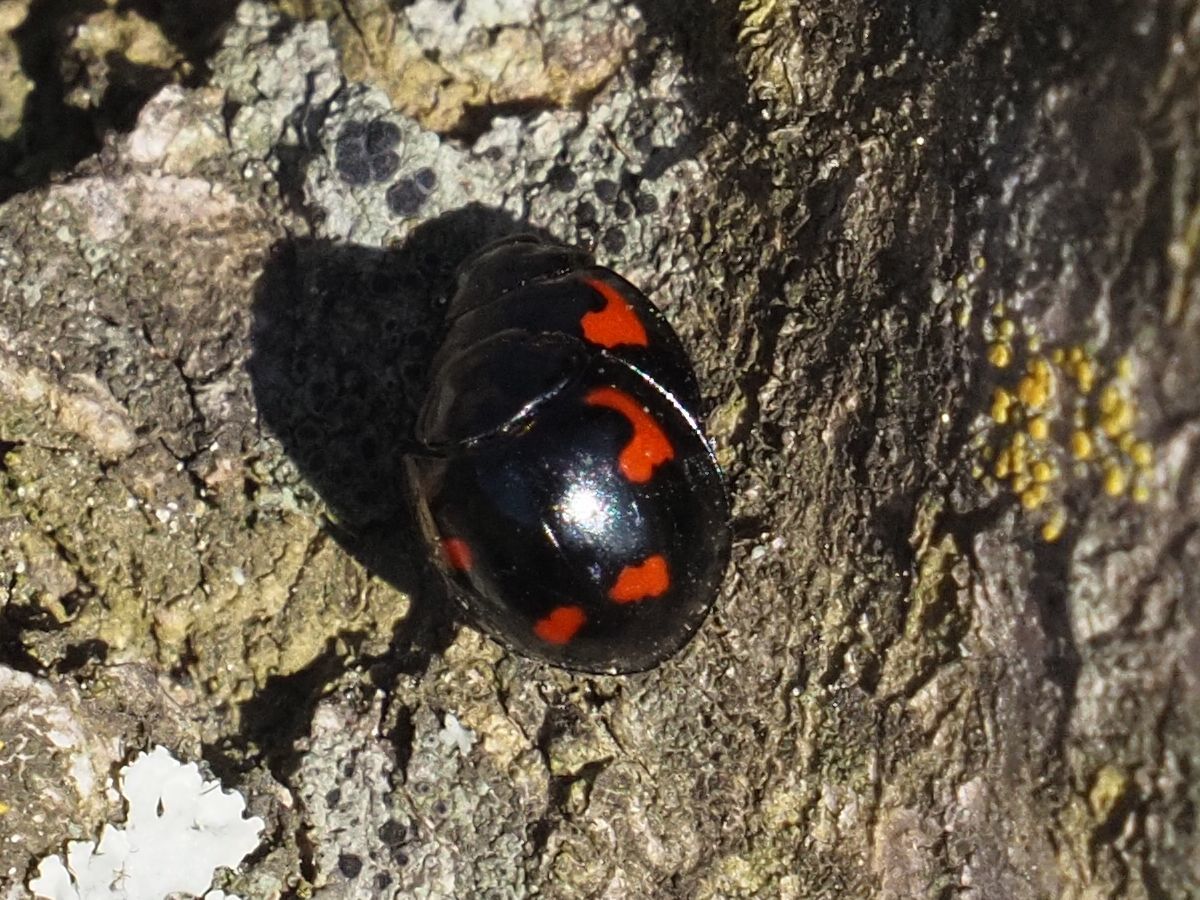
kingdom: Animalia
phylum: Arthropoda
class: Insecta
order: Coleoptera
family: Coccinellidae
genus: Brumus
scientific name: Brumus quadripustulatus
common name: Ladybird beetle
